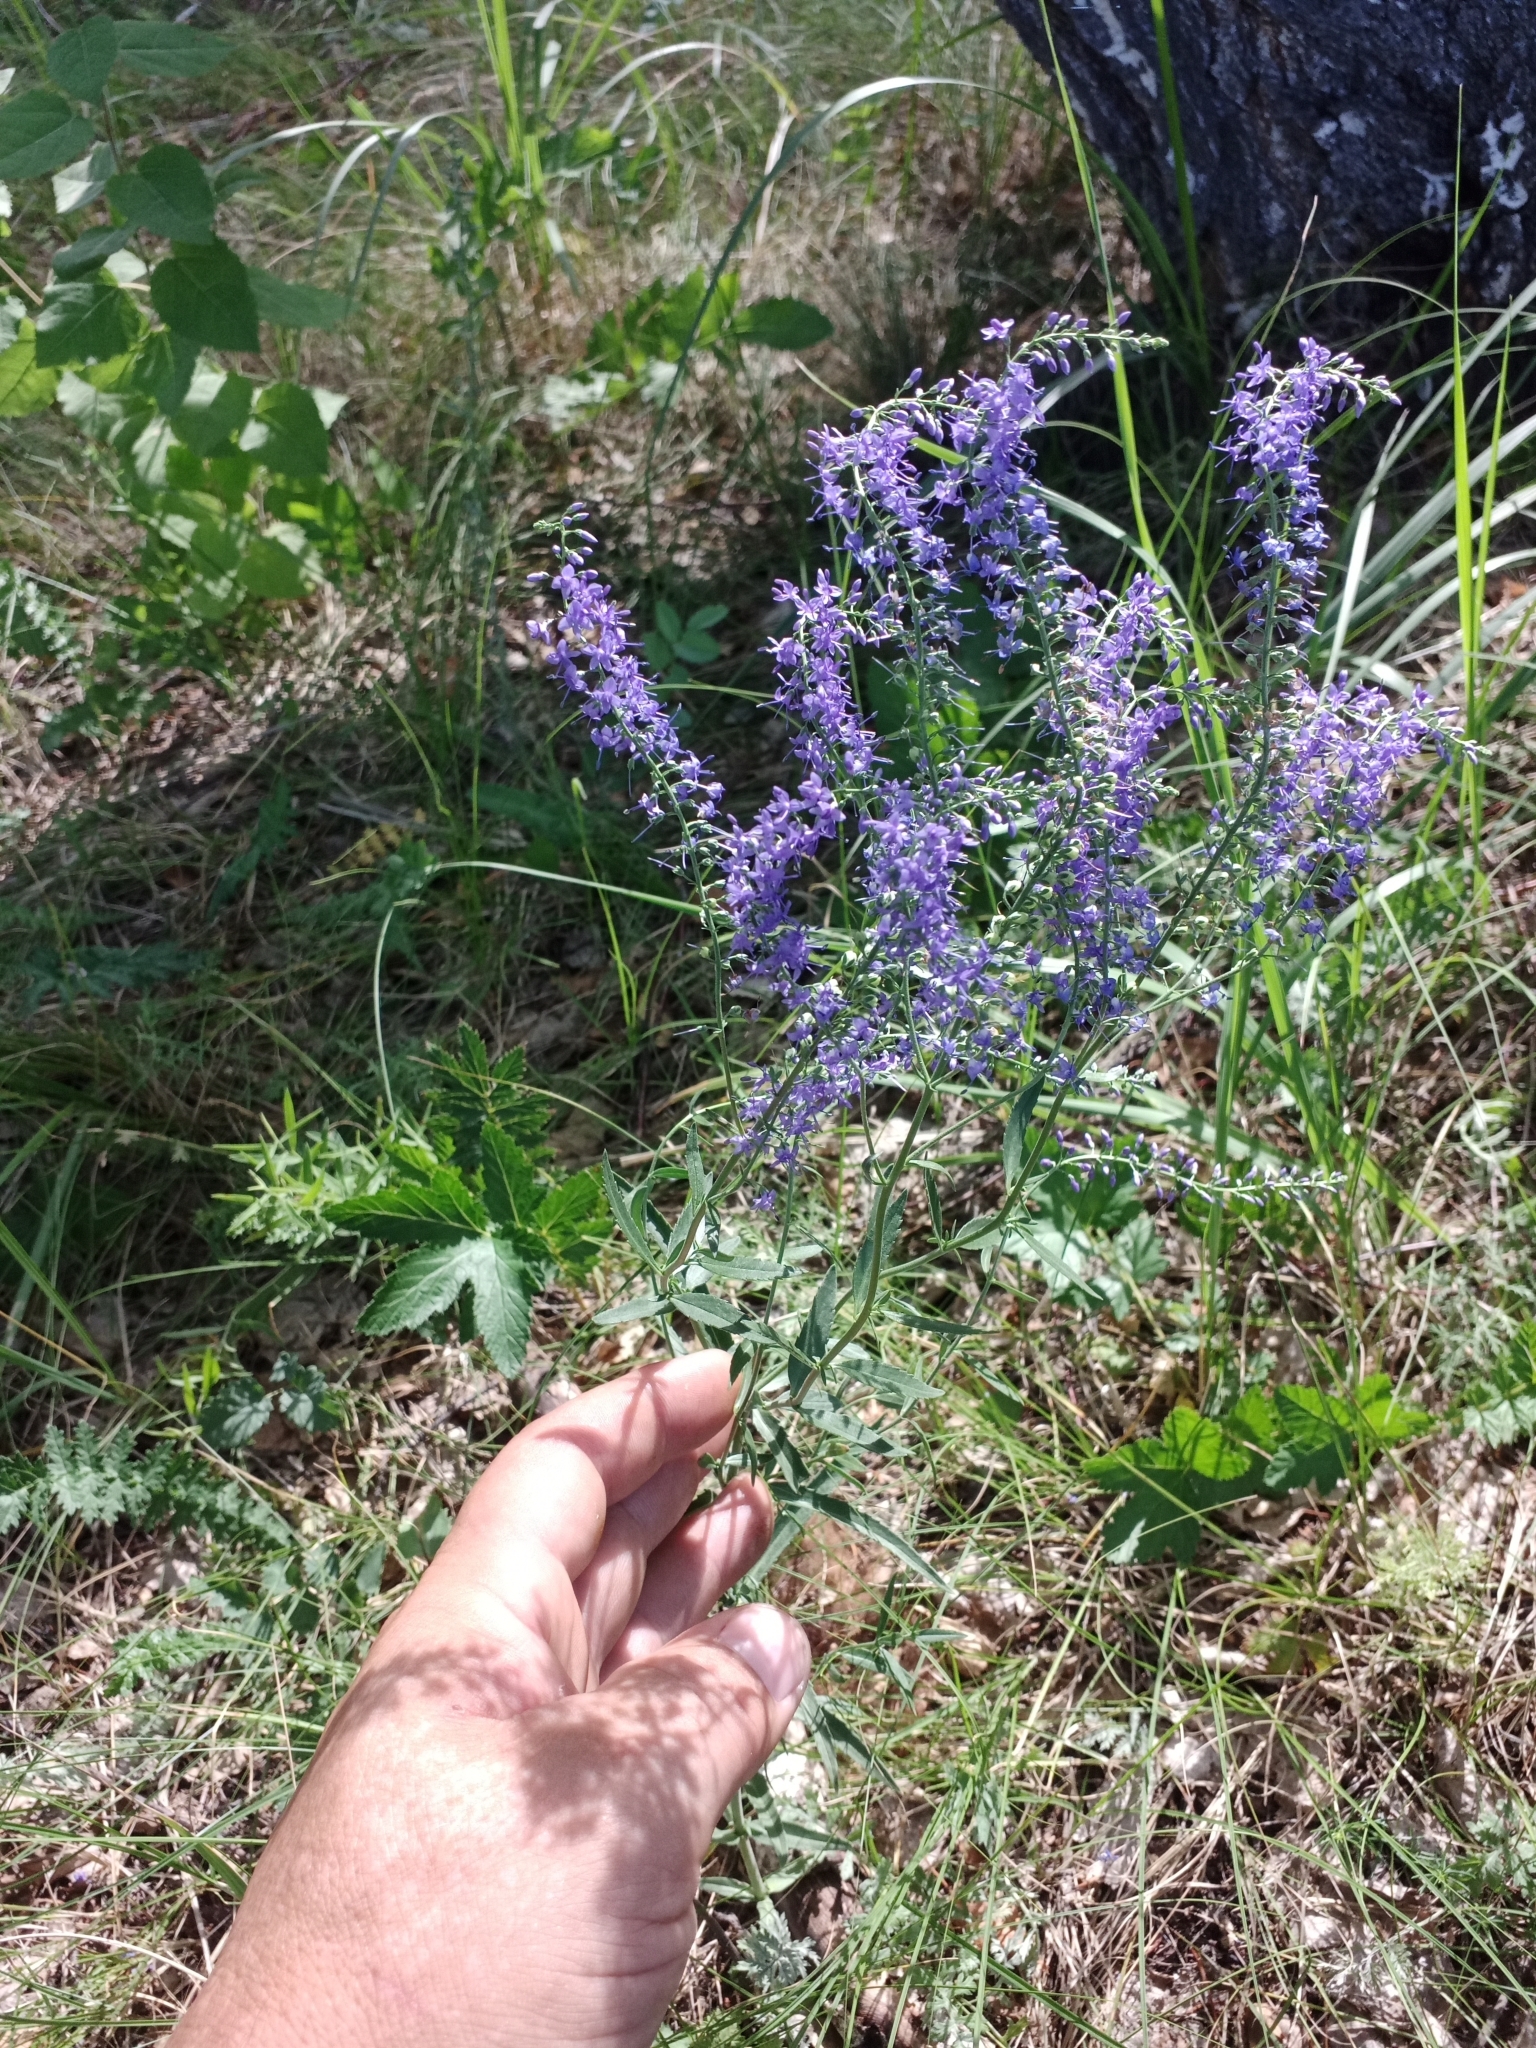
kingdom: Plantae
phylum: Tracheophyta
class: Magnoliopsida
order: Lamiales
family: Plantaginaceae
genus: Veronica
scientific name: Veronica spuria
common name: Bastard speedwell
